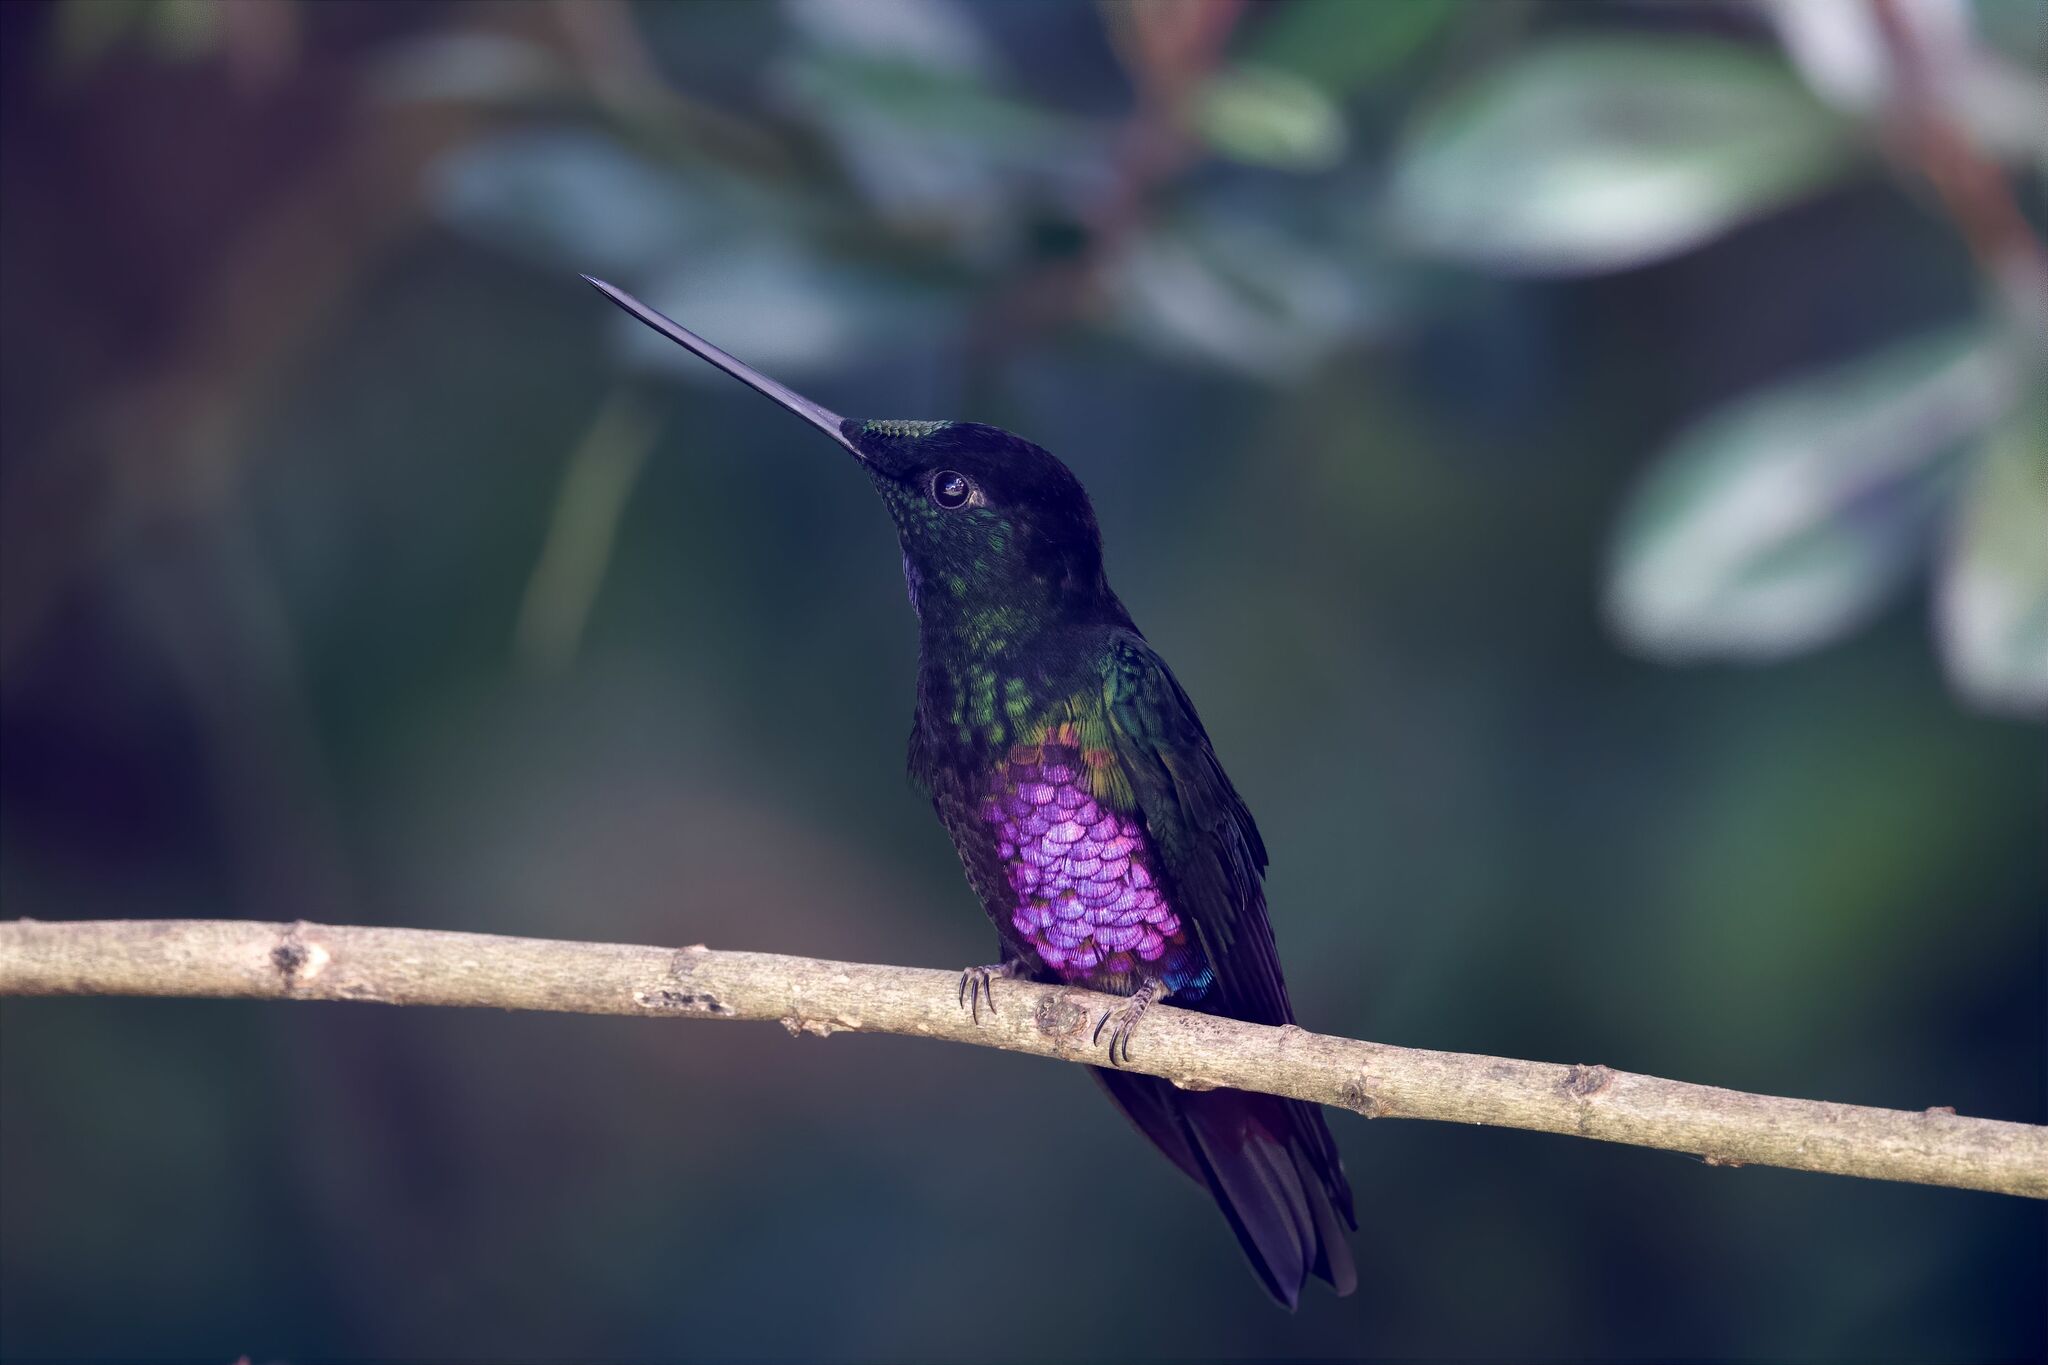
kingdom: Animalia
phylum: Chordata
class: Aves
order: Apodiformes
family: Trochilidae
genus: Coeligena
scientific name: Coeligena helianthea
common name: Blue-throated starfrontlet
